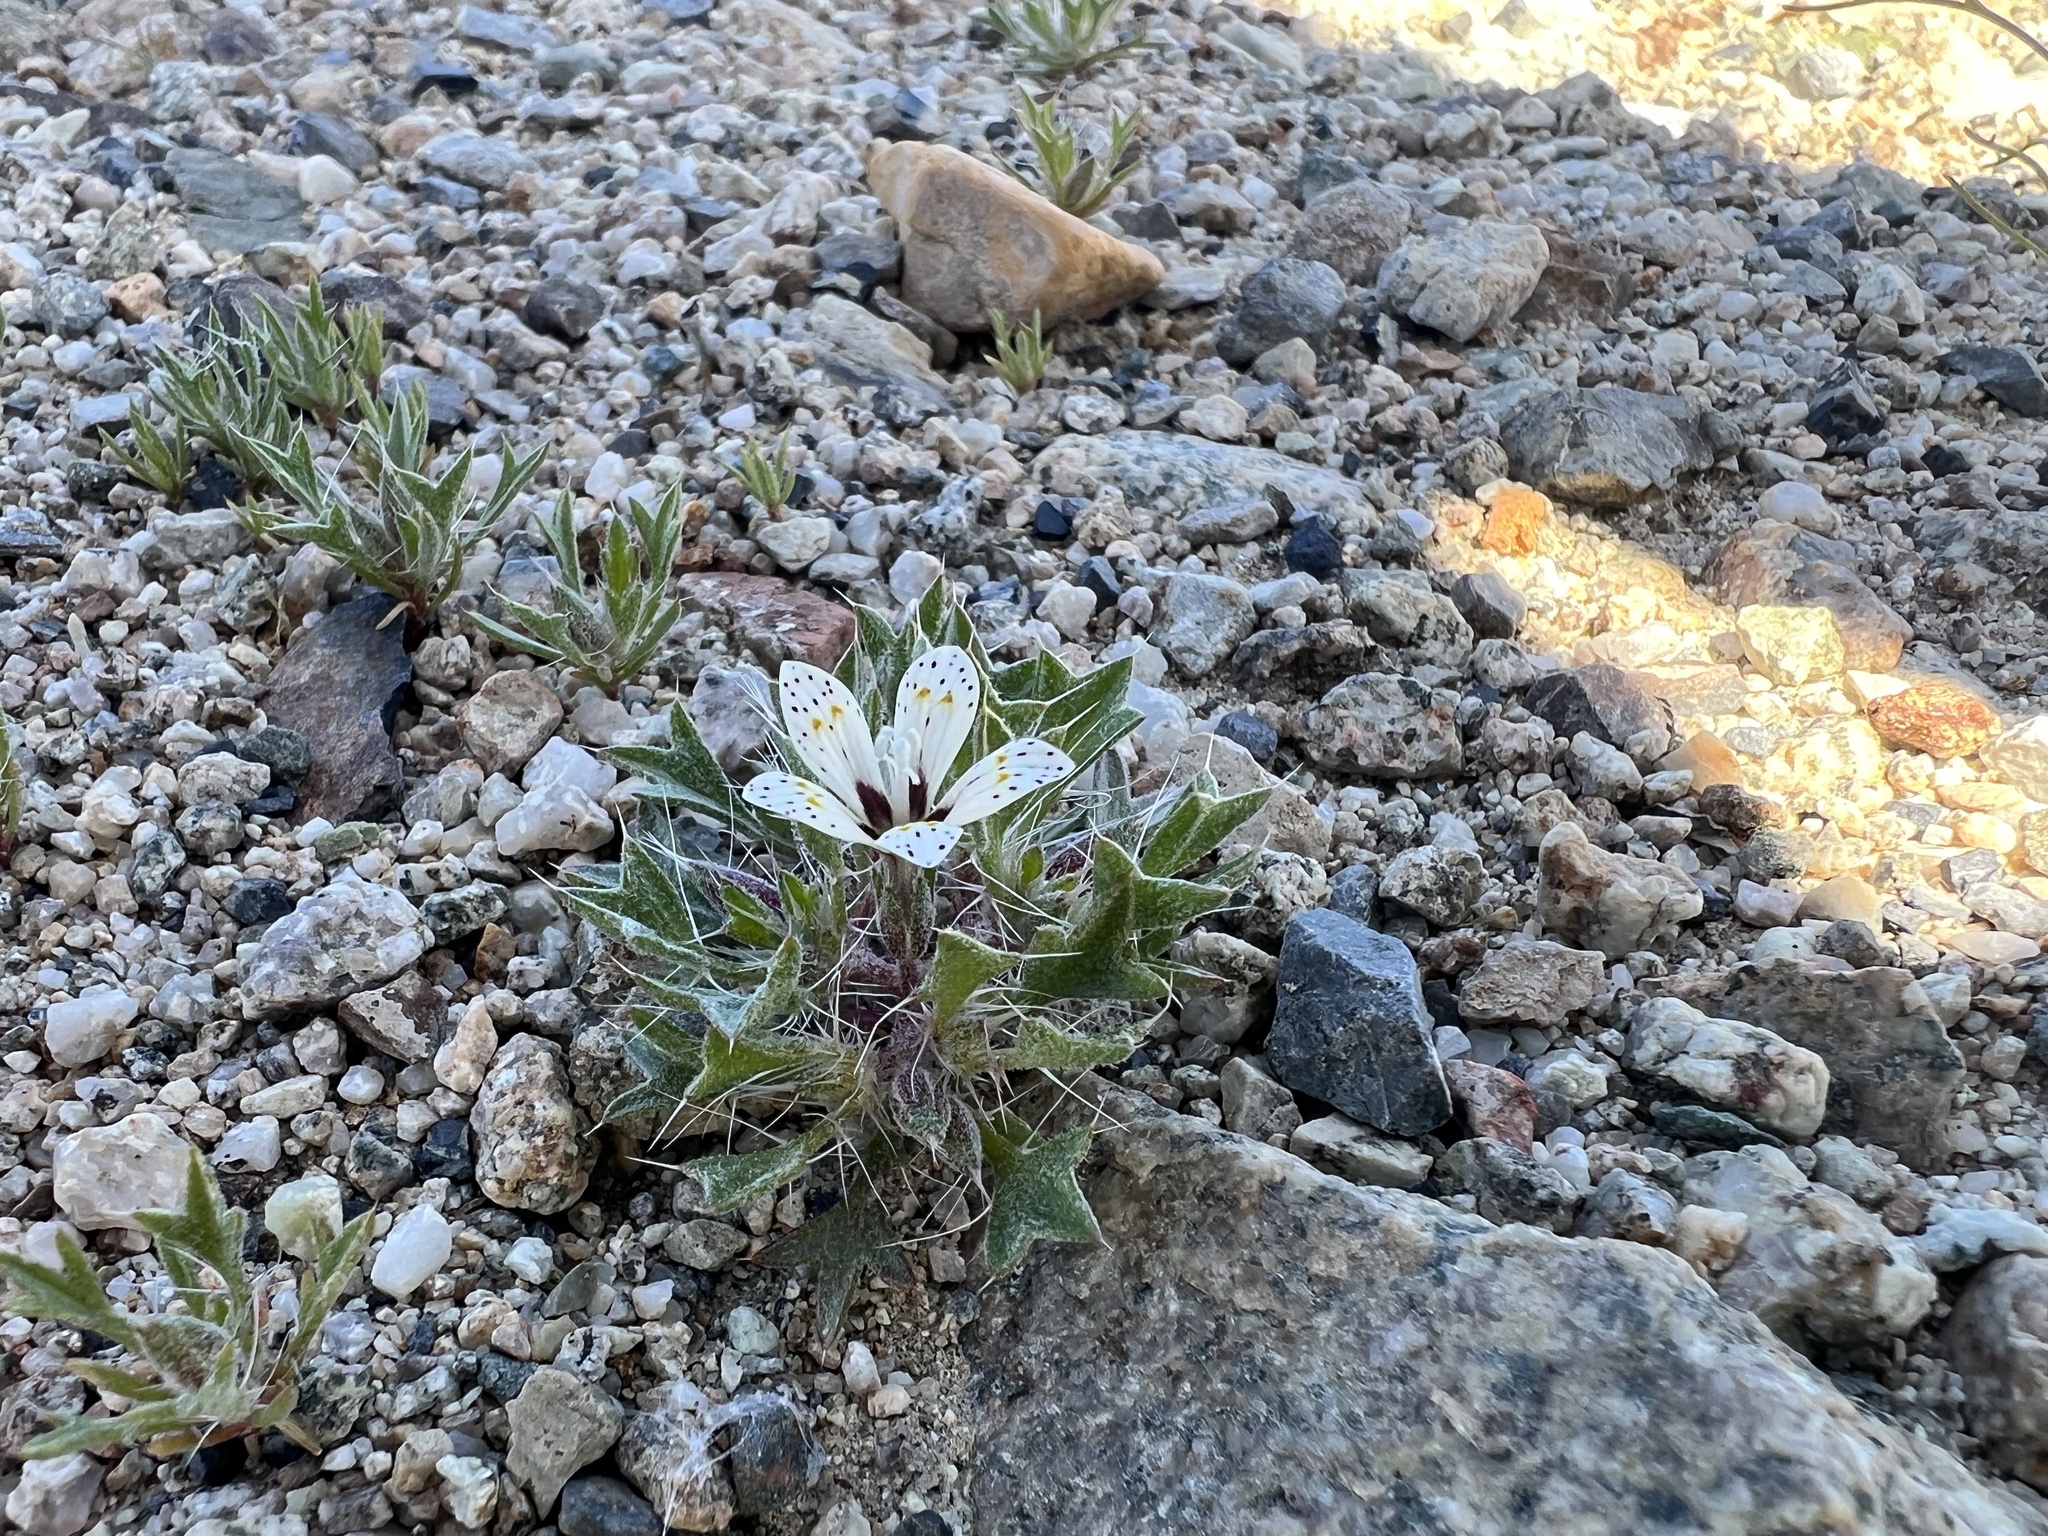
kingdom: Plantae
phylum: Tracheophyta
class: Magnoliopsida
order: Ericales
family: Polemoniaceae
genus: Langloisia
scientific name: Langloisia setosissima
